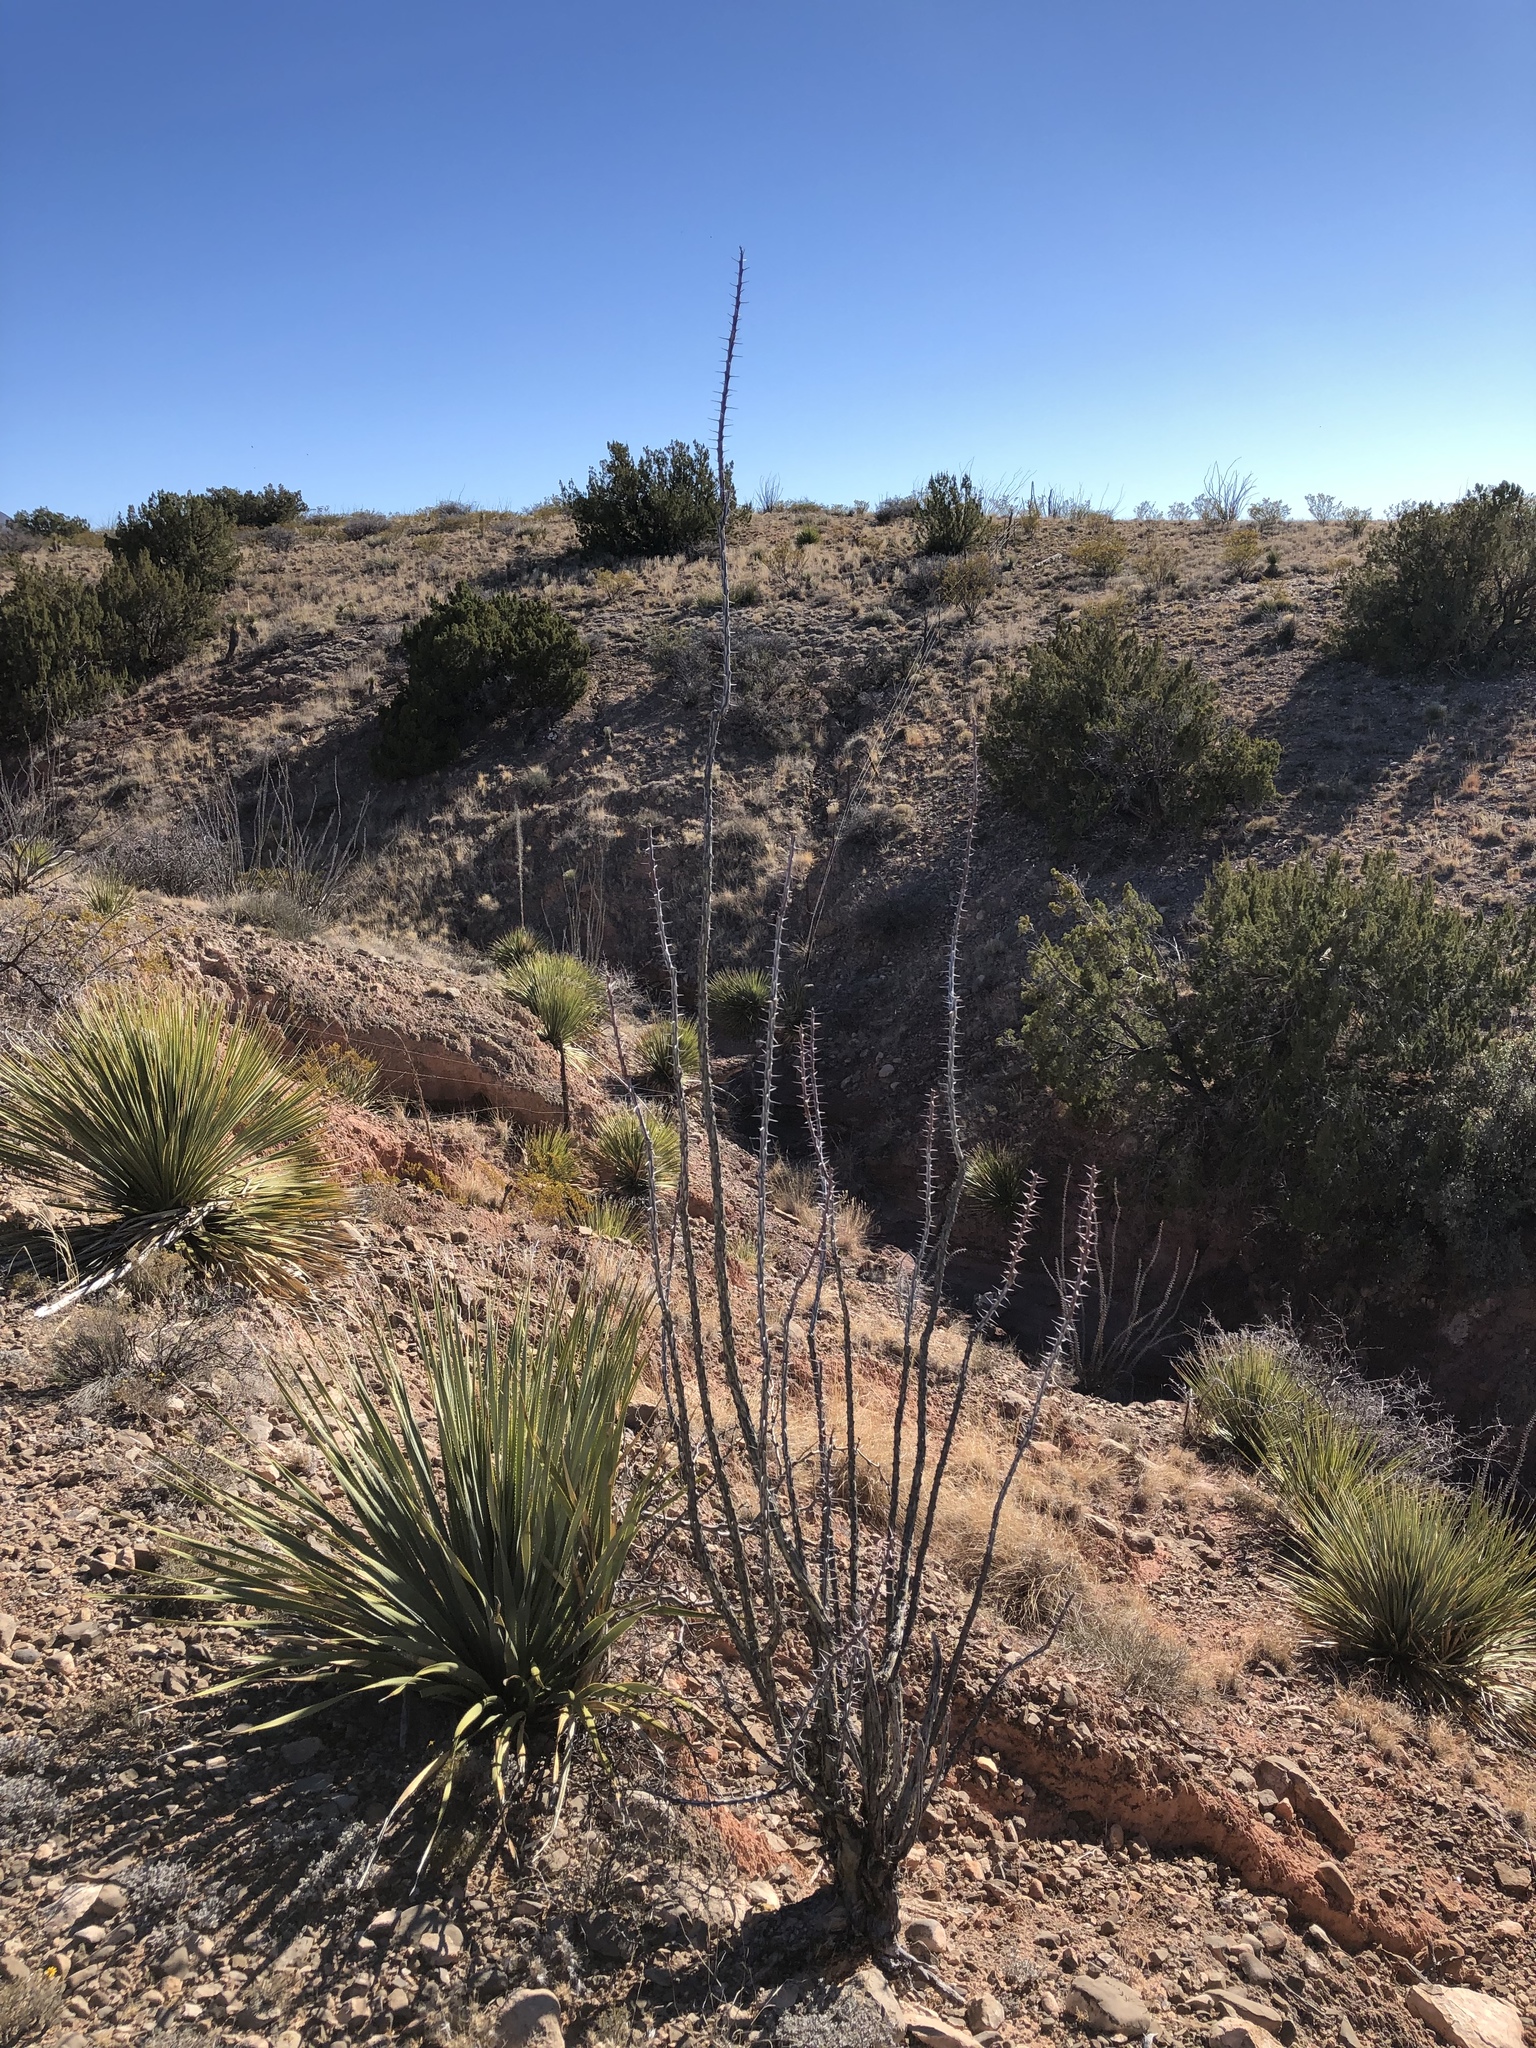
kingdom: Plantae
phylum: Tracheophyta
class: Magnoliopsida
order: Ericales
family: Fouquieriaceae
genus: Fouquieria
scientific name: Fouquieria splendens
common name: Vine-cactus
